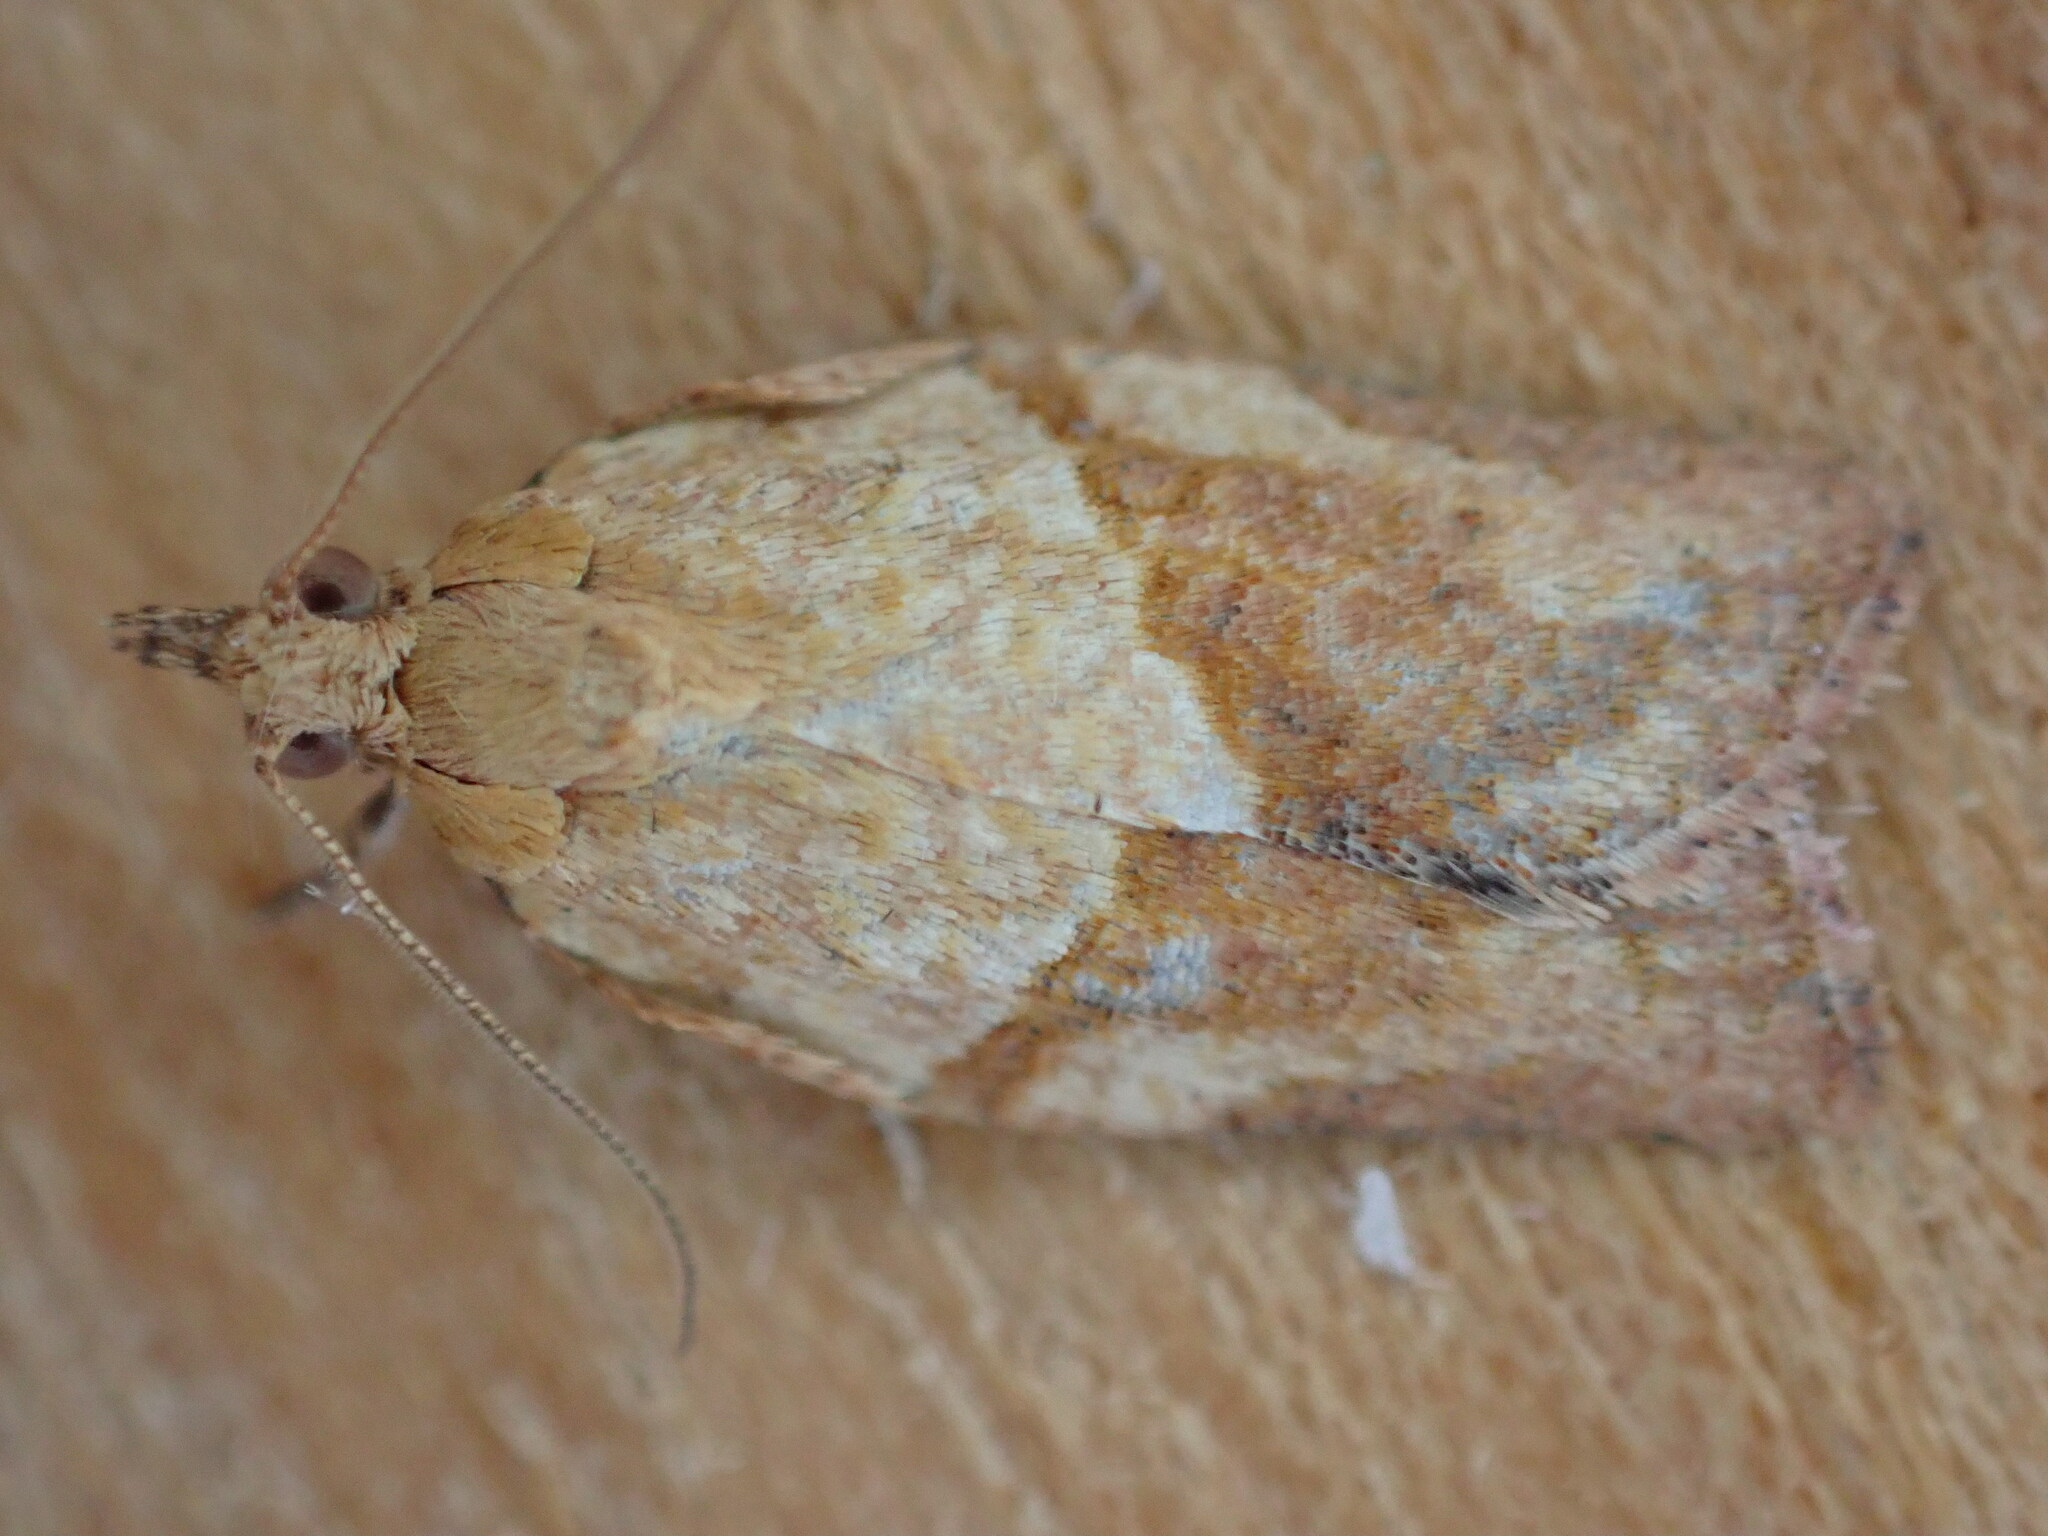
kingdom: Animalia
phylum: Arthropoda
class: Insecta
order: Lepidoptera
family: Tortricidae
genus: Epiphyas
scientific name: Epiphyas postvittana
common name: Light brown apple moth
